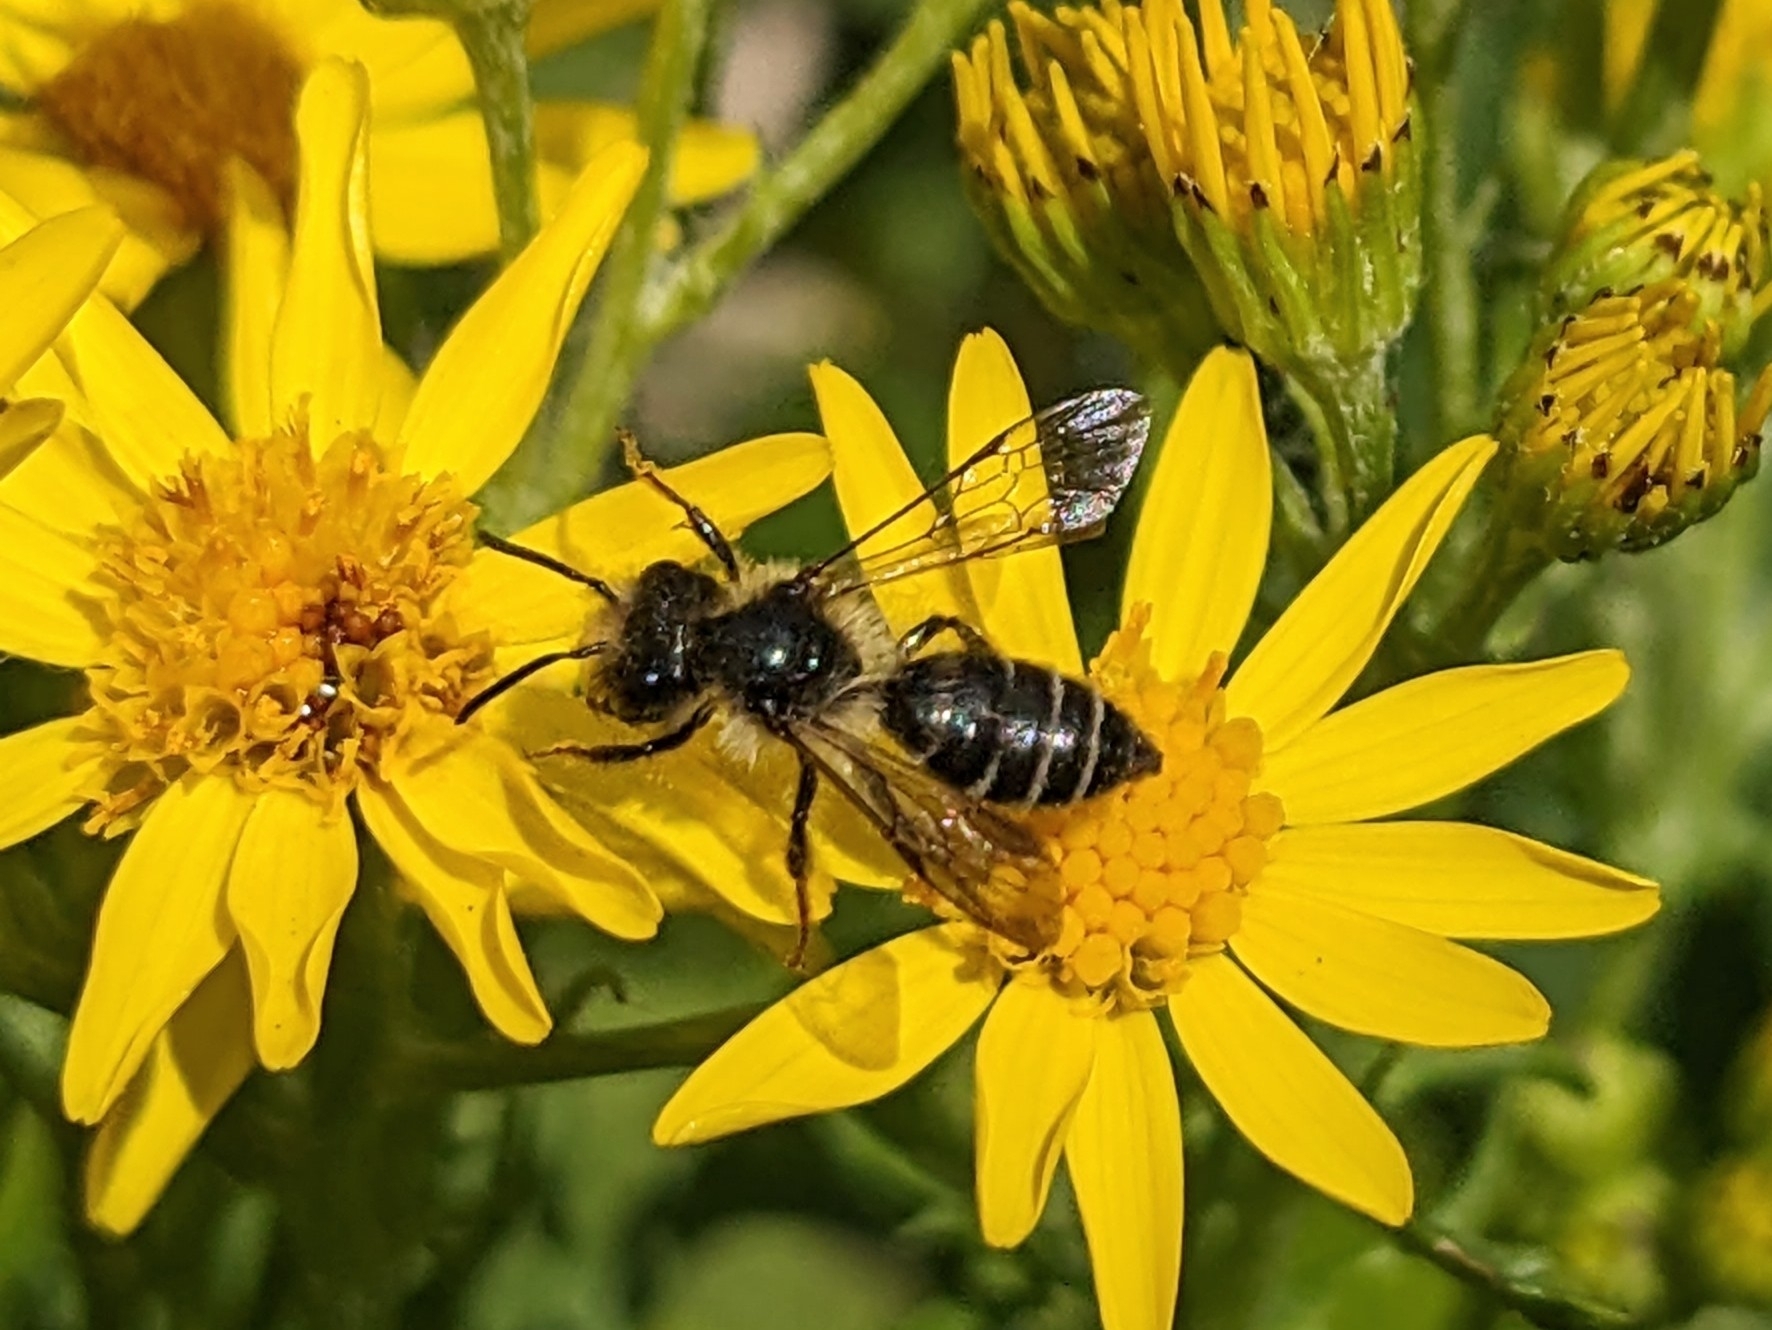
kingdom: Animalia
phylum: Arthropoda
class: Insecta
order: Hymenoptera
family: Andrenidae
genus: Andrena
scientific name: Andrena denticulata
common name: Grey-banded mining bee
